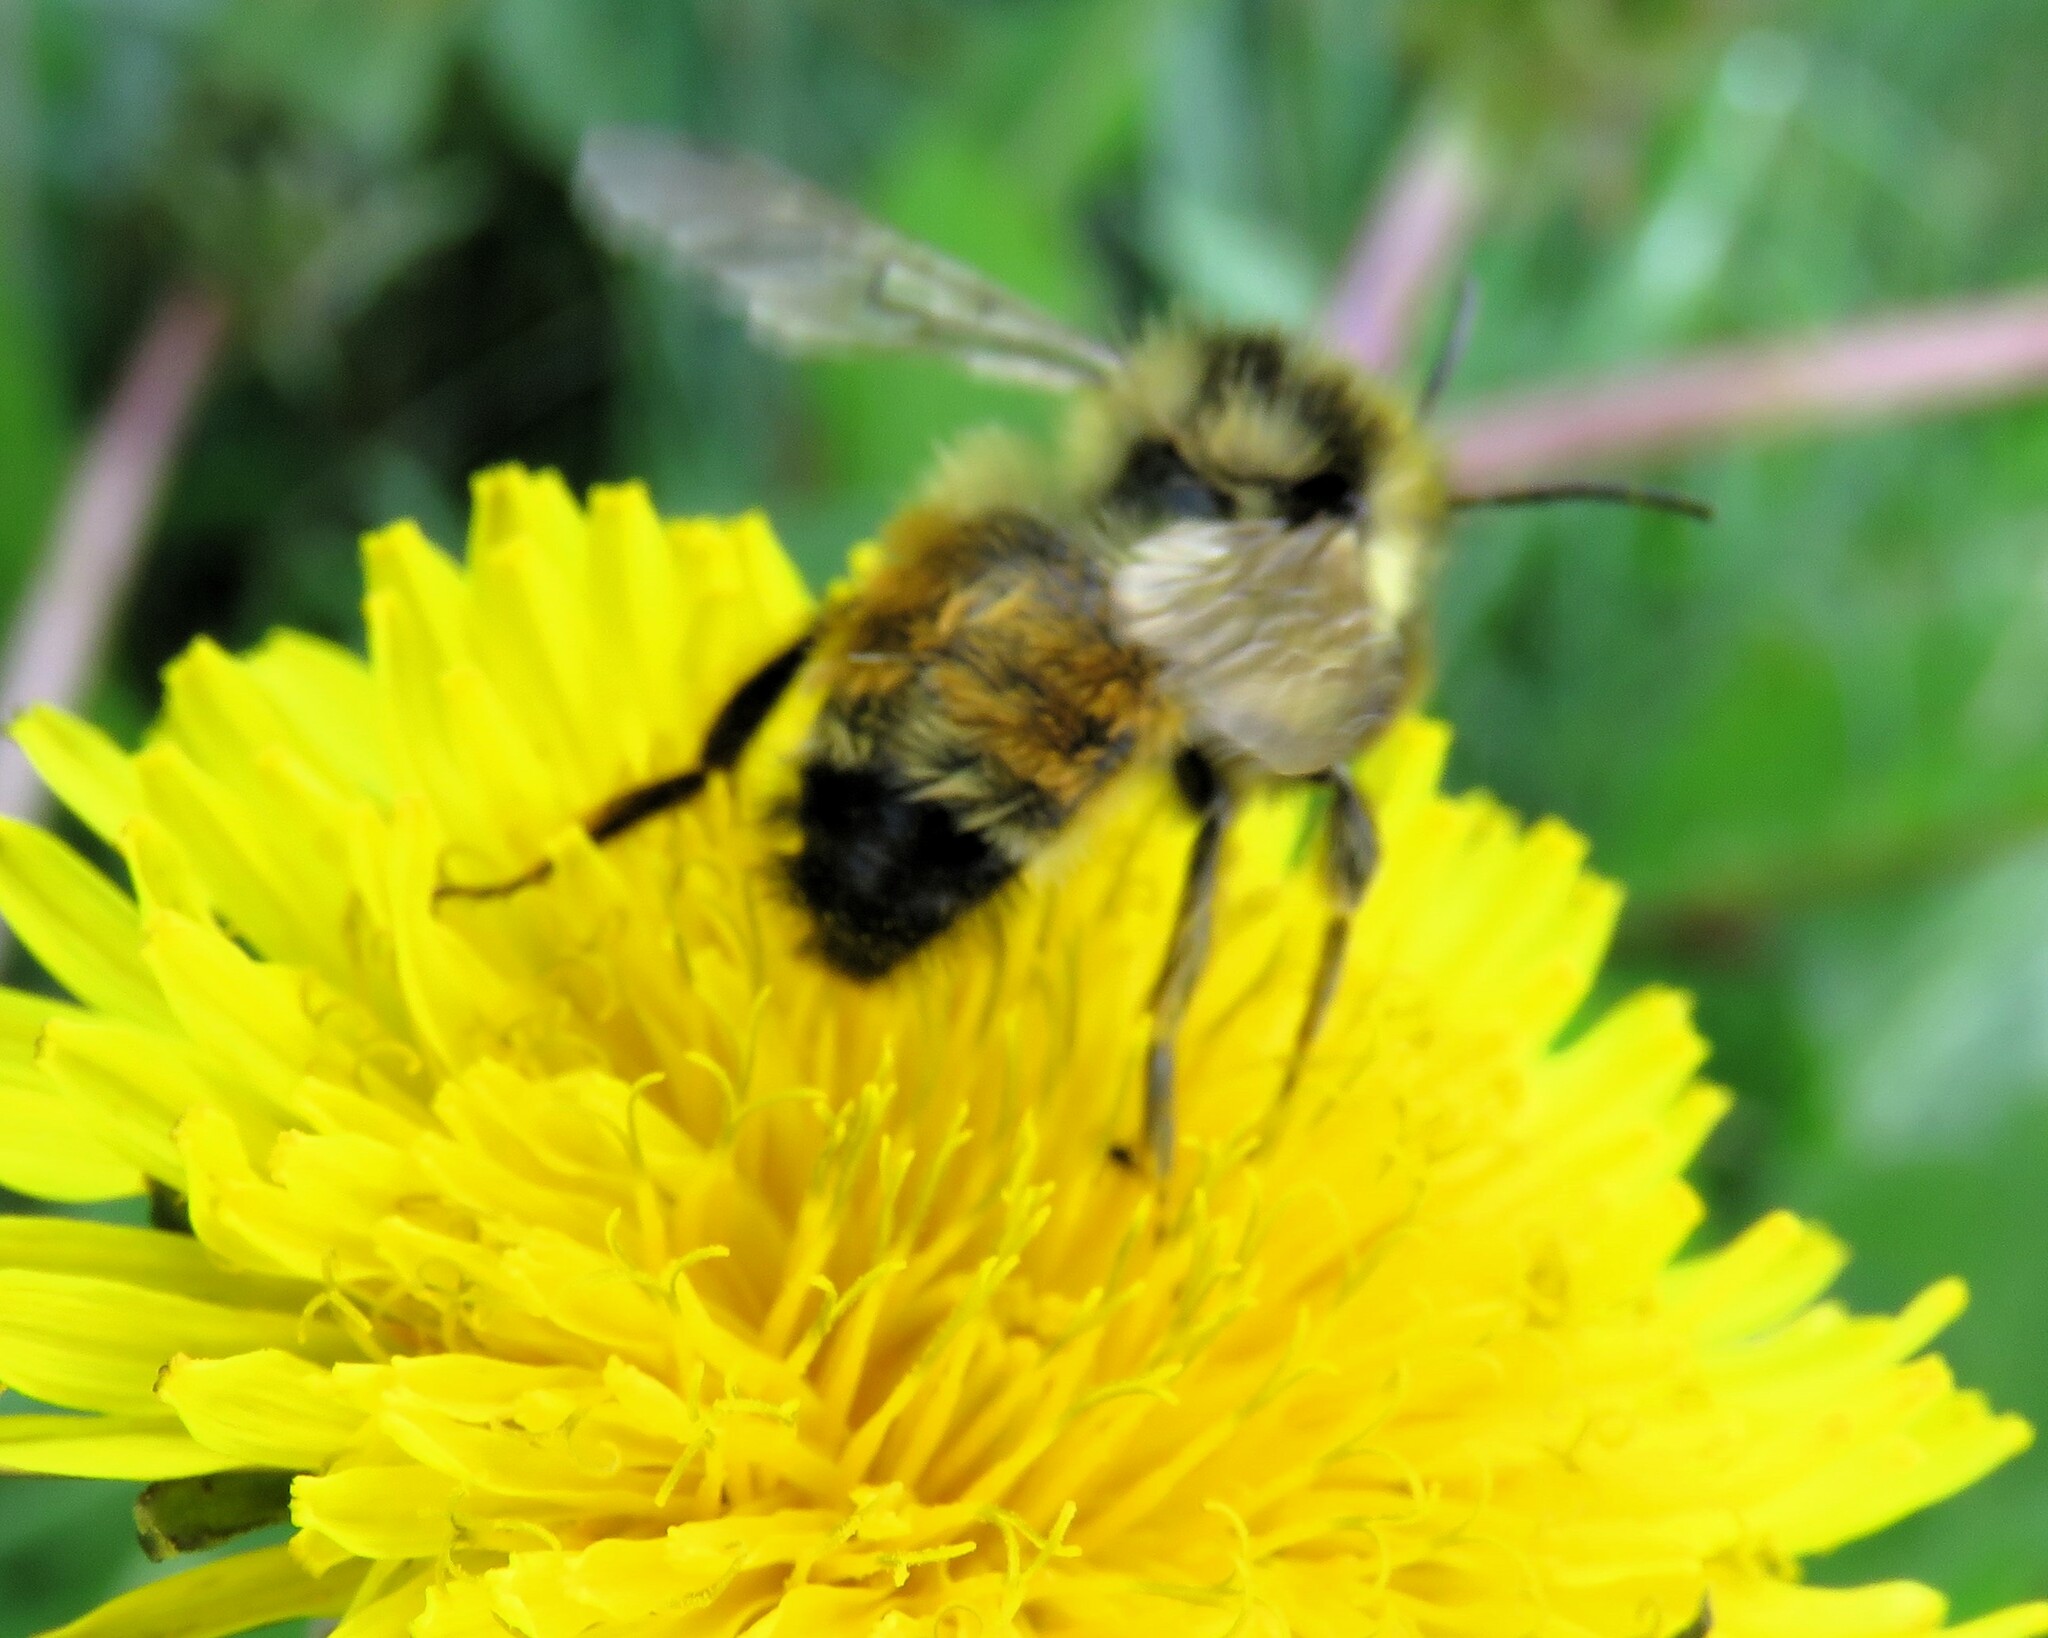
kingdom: Animalia
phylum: Arthropoda
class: Insecta
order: Hymenoptera
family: Apidae
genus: Bombus
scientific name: Bombus ternarius
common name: Tri-colored bumble bee
